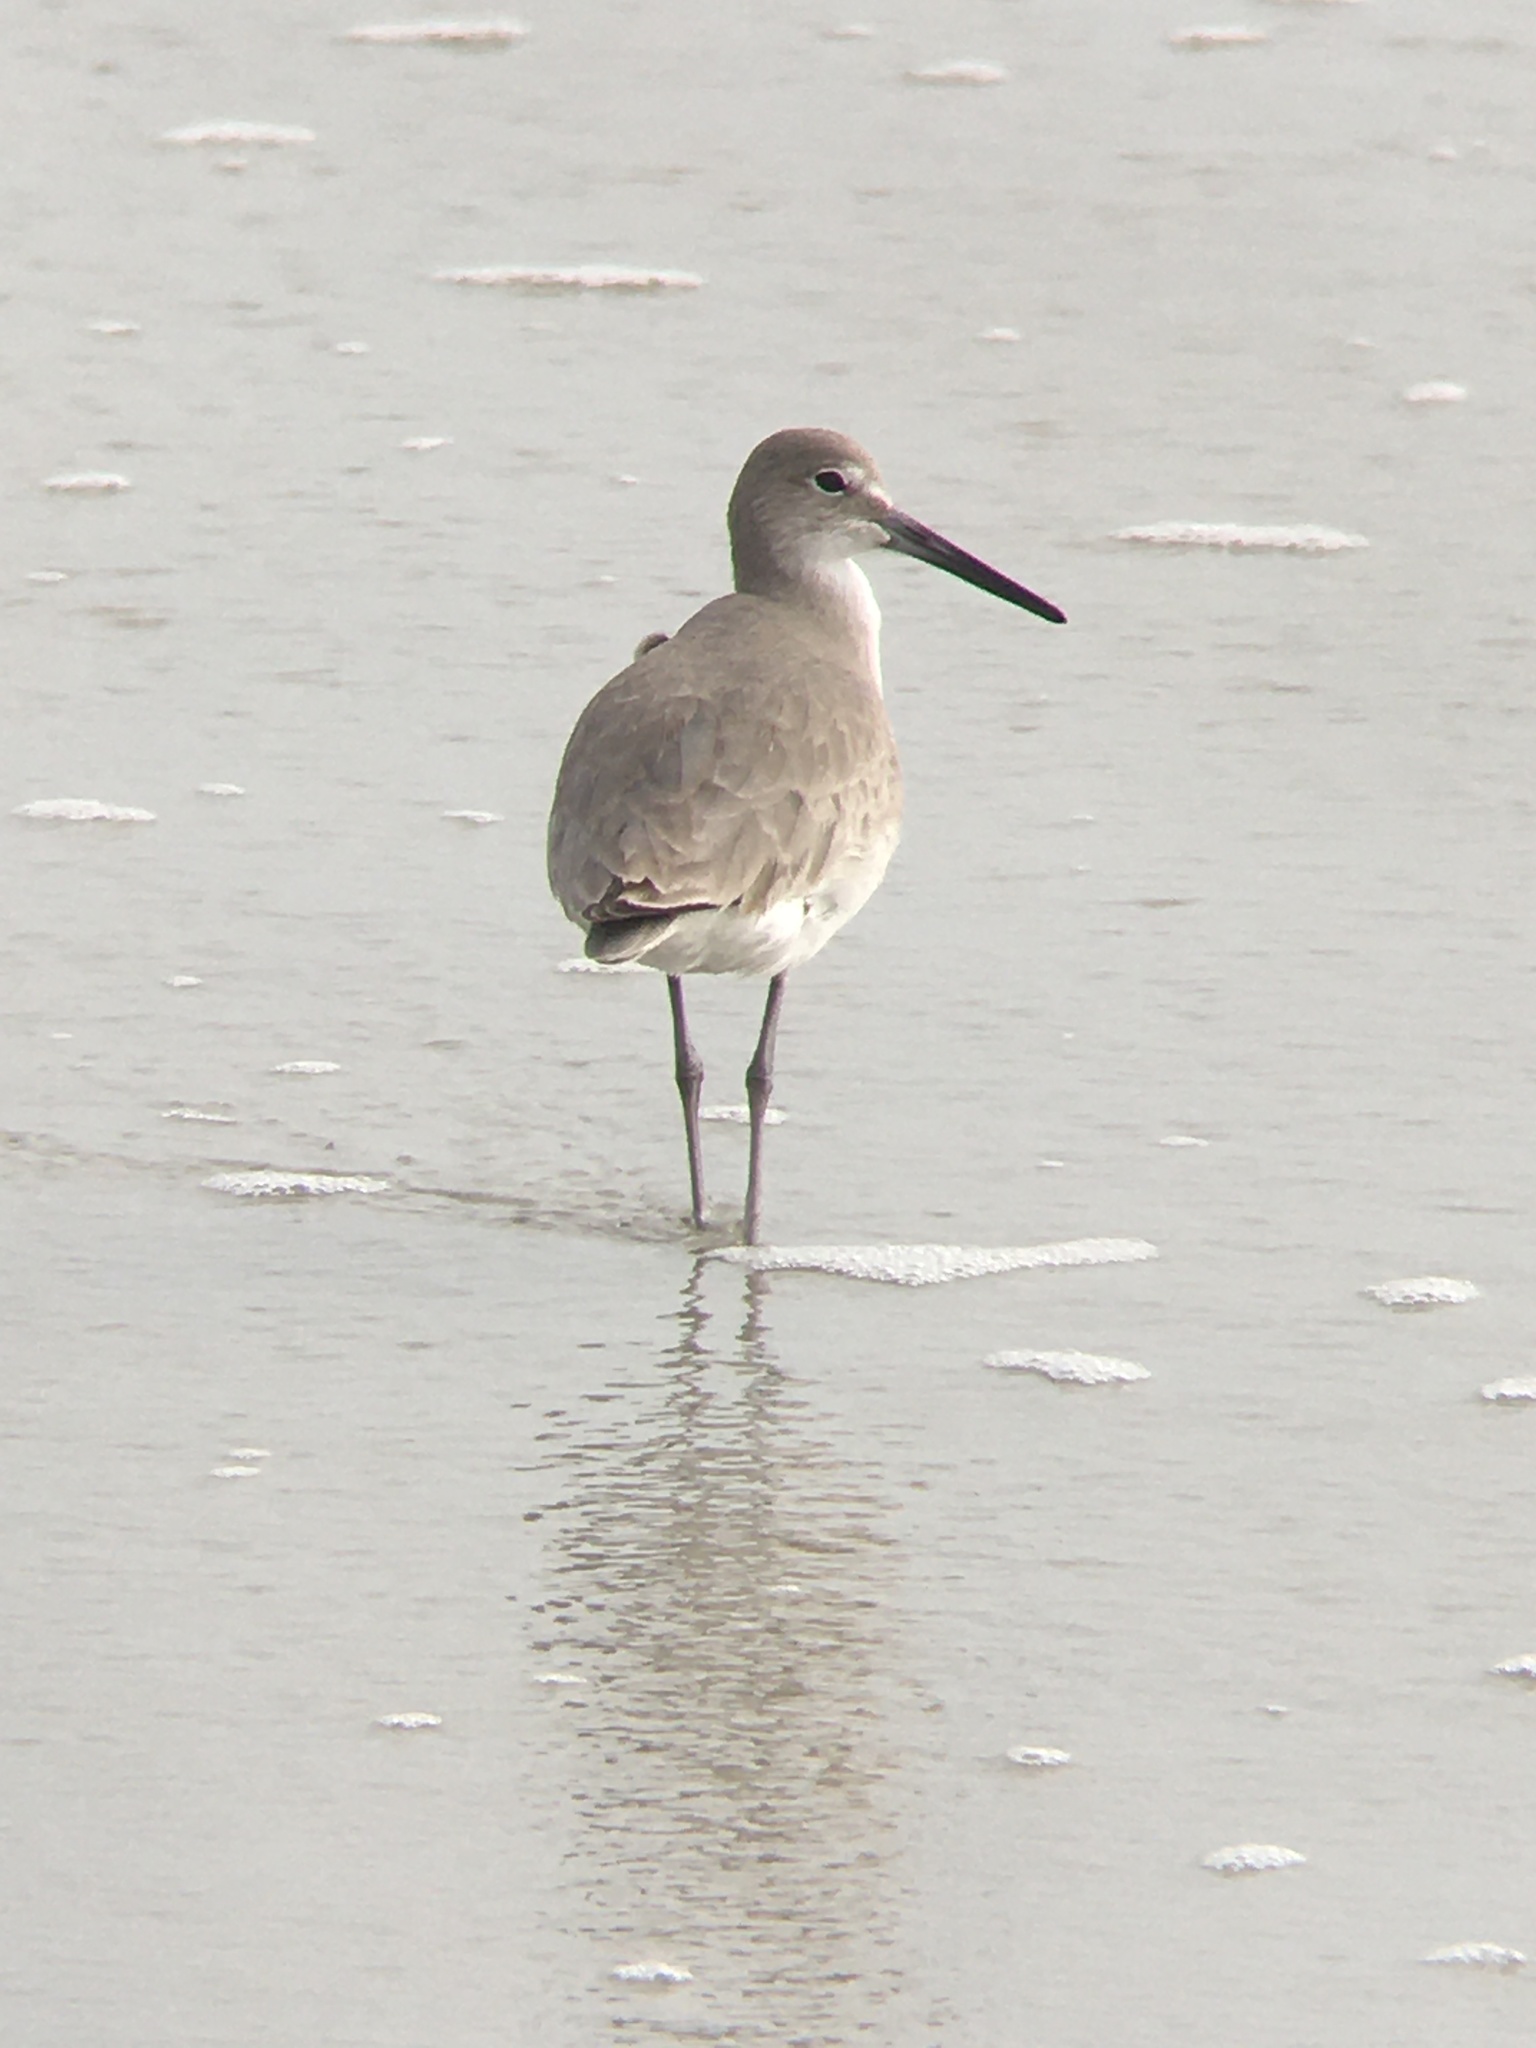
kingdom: Animalia
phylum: Chordata
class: Aves
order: Charadriiformes
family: Scolopacidae
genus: Tringa
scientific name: Tringa semipalmata
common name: Willet
